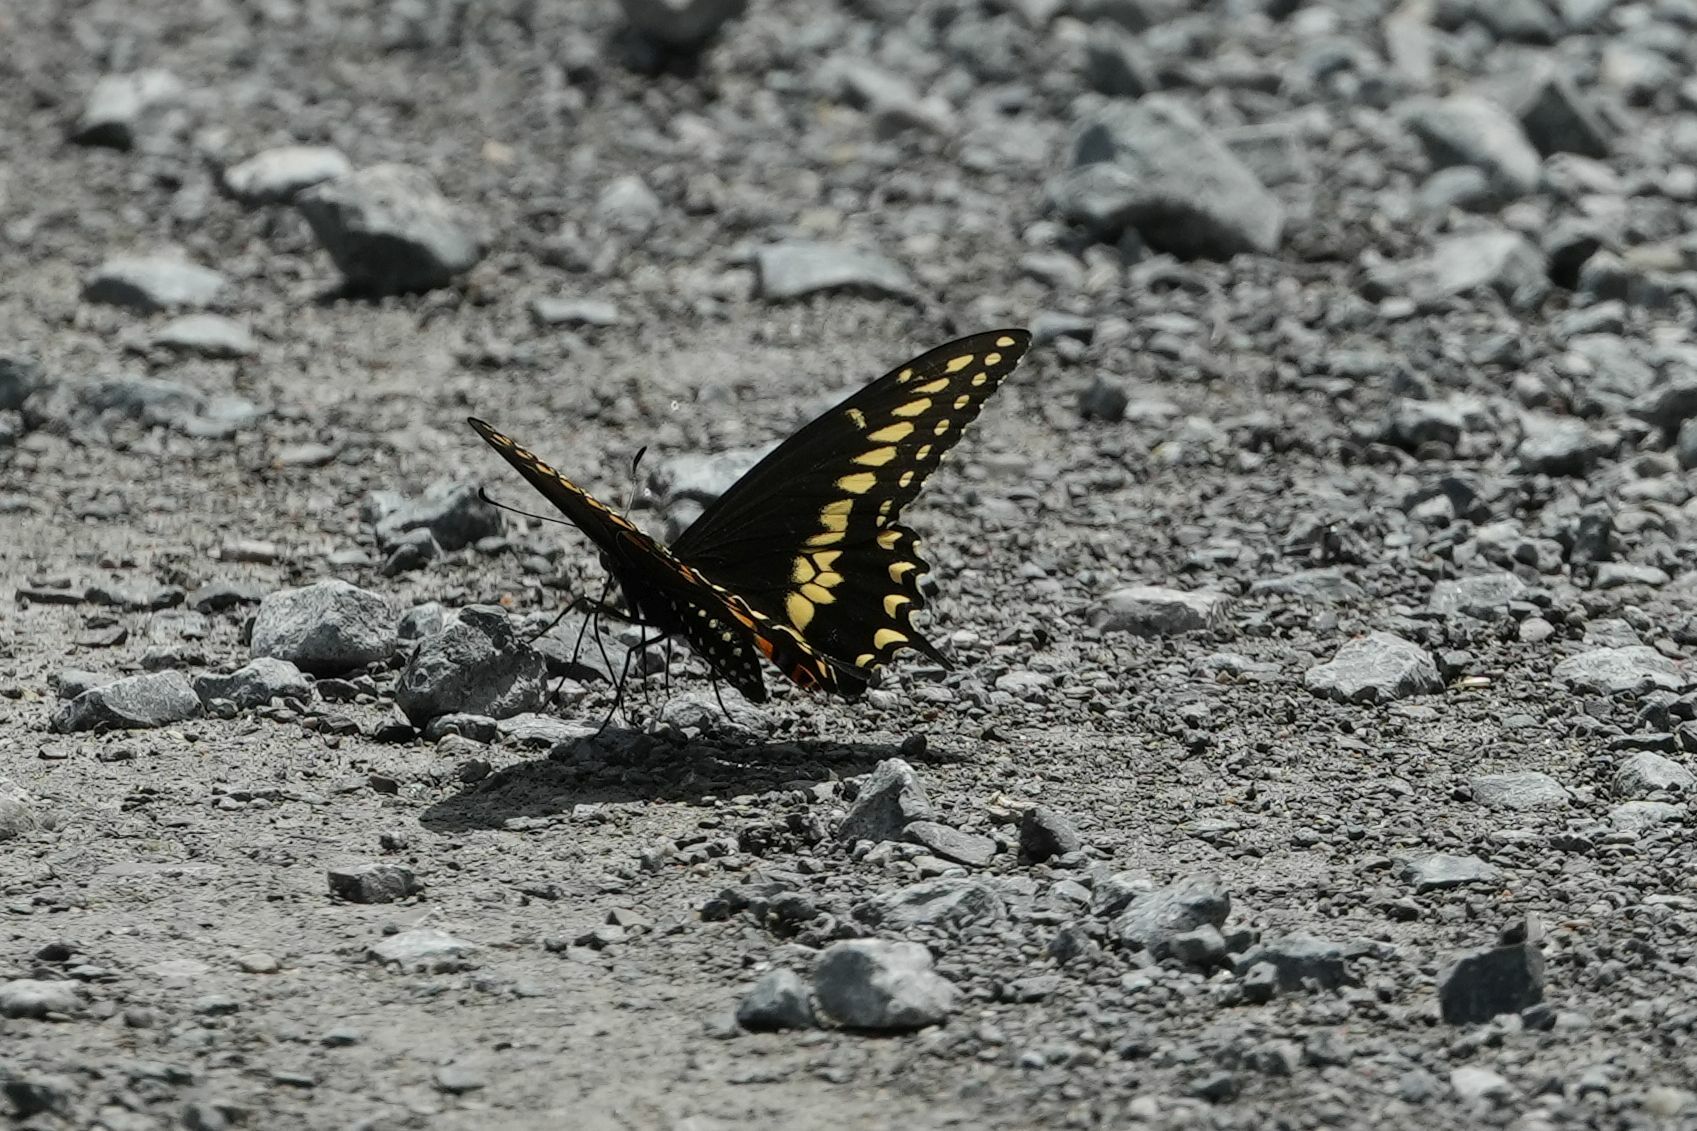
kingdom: Animalia
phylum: Arthropoda
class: Insecta
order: Lepidoptera
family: Papilionidae
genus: Papilio
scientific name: Papilio polyxenes
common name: Black swallowtail
